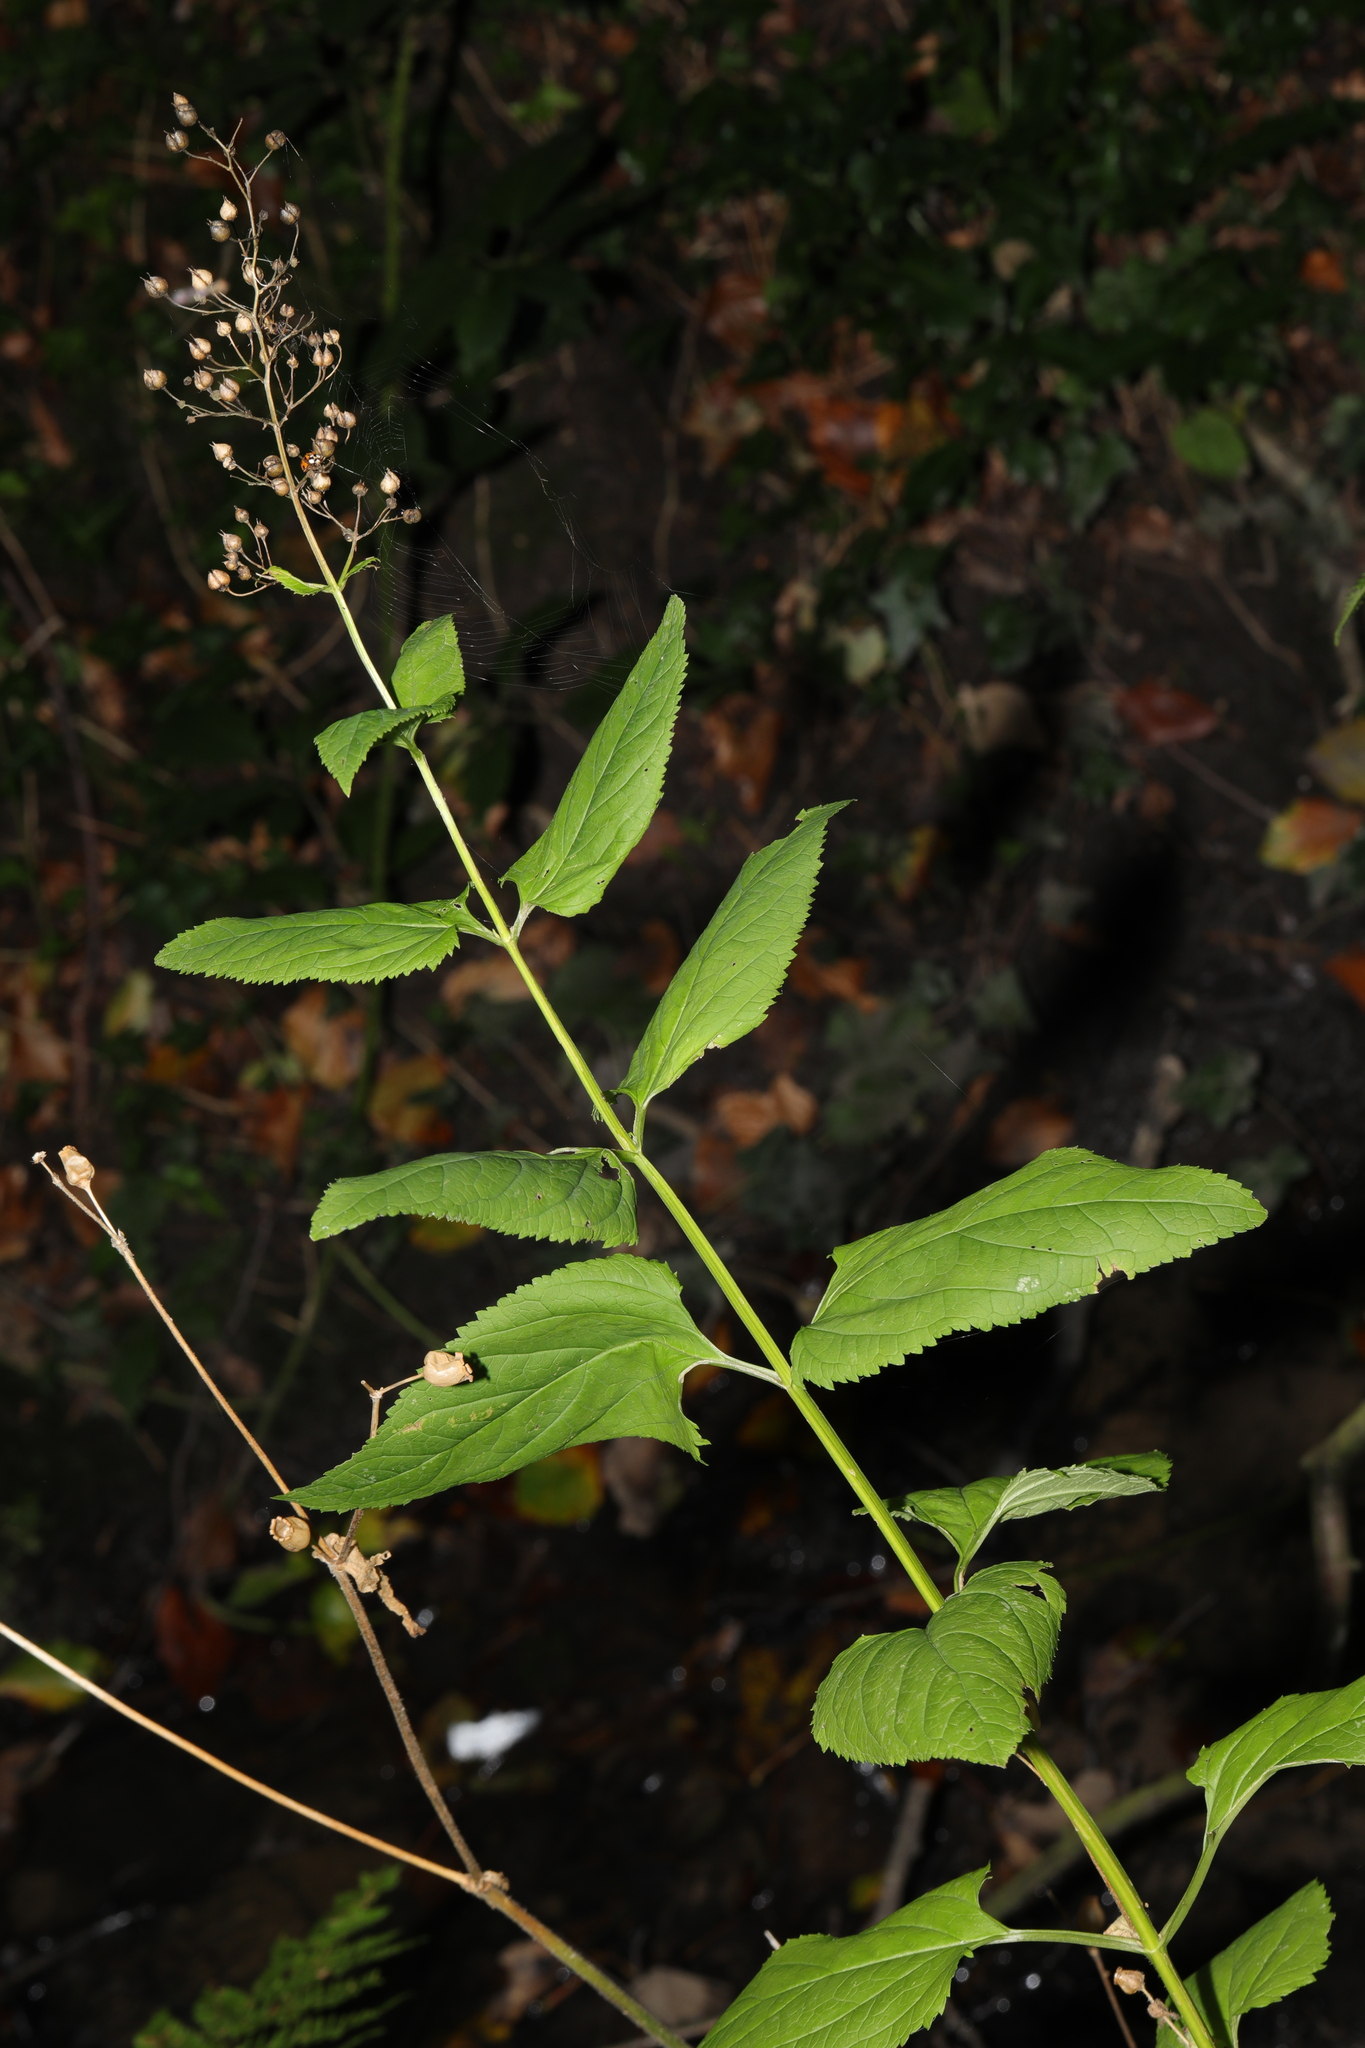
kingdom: Plantae
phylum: Tracheophyta
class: Magnoliopsida
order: Lamiales
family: Scrophulariaceae
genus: Scrophularia
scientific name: Scrophularia nodosa
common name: Common figwort
